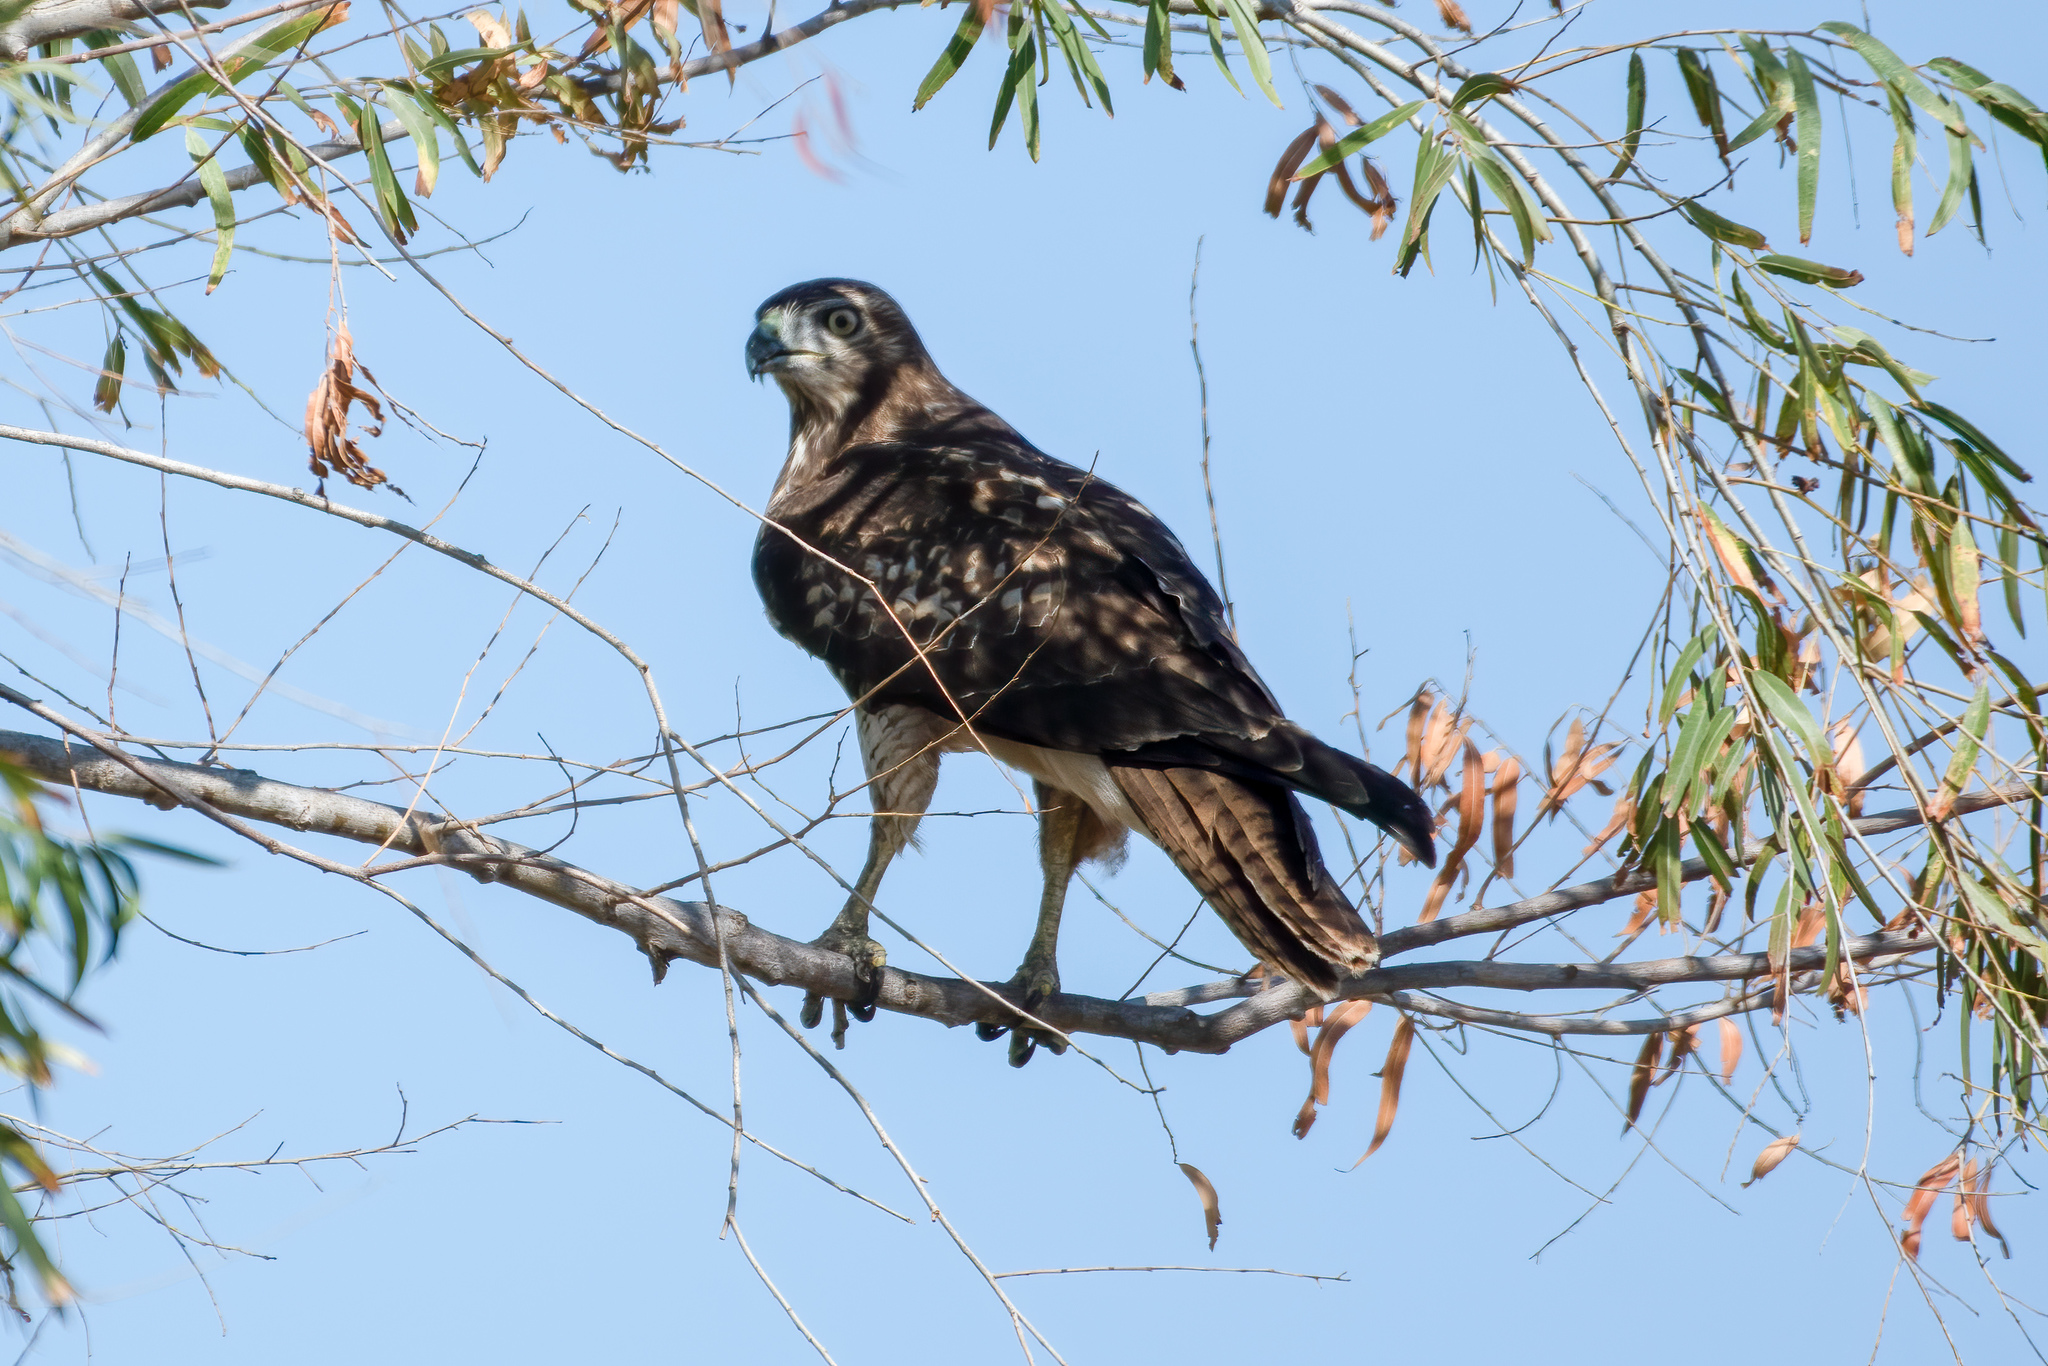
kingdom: Animalia
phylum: Chordata
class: Aves
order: Accipitriformes
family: Accipitridae
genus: Buteo
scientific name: Buteo jamaicensis
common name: Red-tailed hawk
